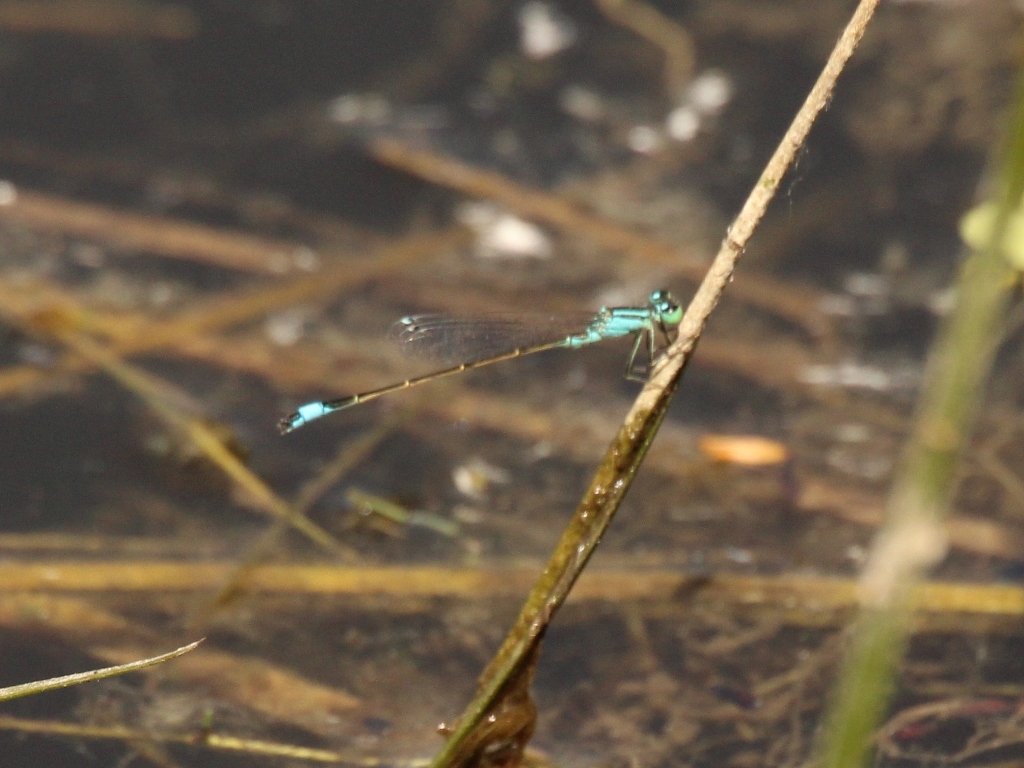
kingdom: Animalia
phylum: Arthropoda
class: Insecta
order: Odonata
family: Coenagrionidae
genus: Ischnura
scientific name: Ischnura elegans
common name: Blue-tailed damselfly
